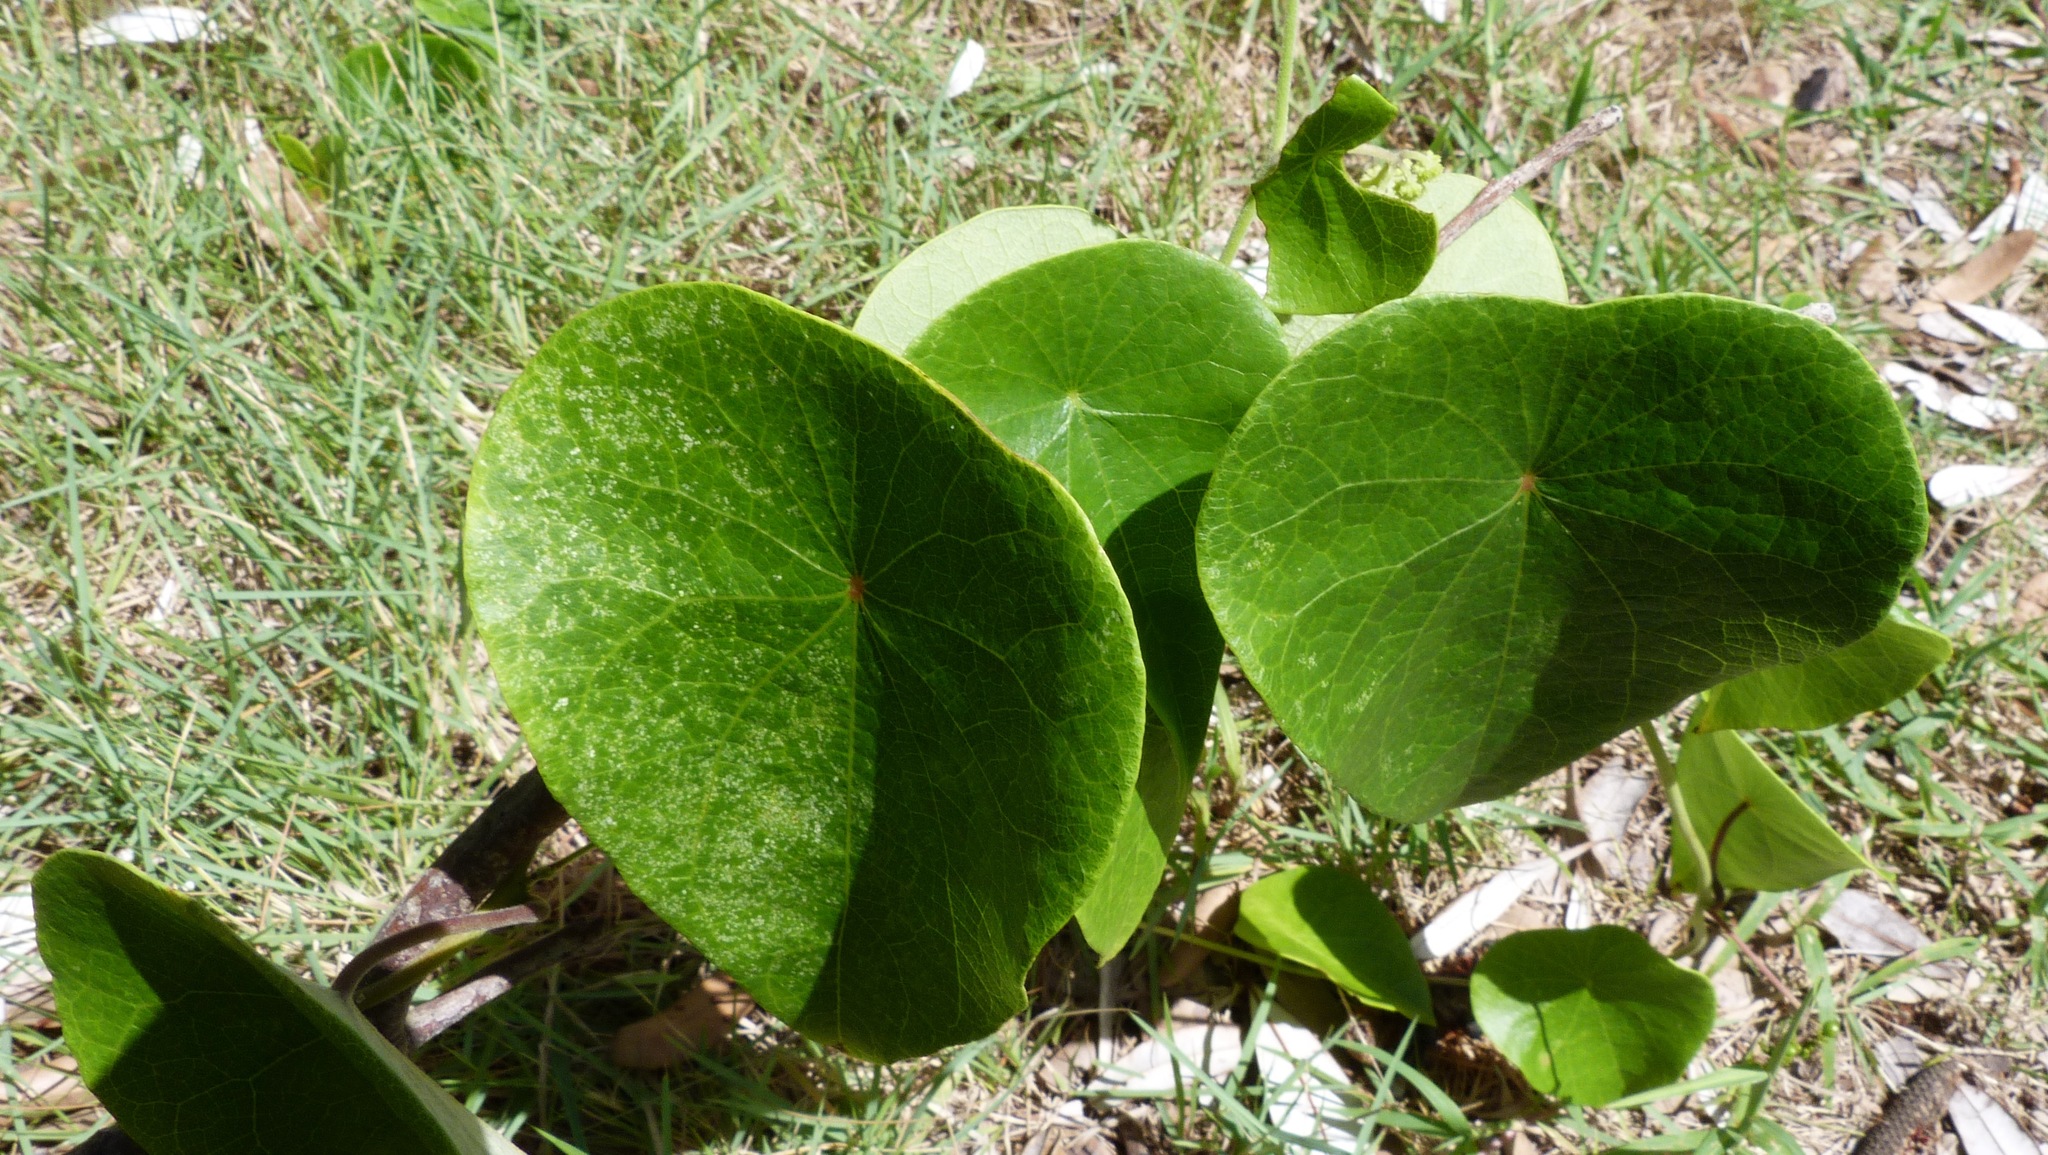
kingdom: Plantae
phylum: Tracheophyta
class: Magnoliopsida
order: Ranunculales
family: Menispermaceae
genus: Stephania
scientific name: Stephania japonica
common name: Snake vine
